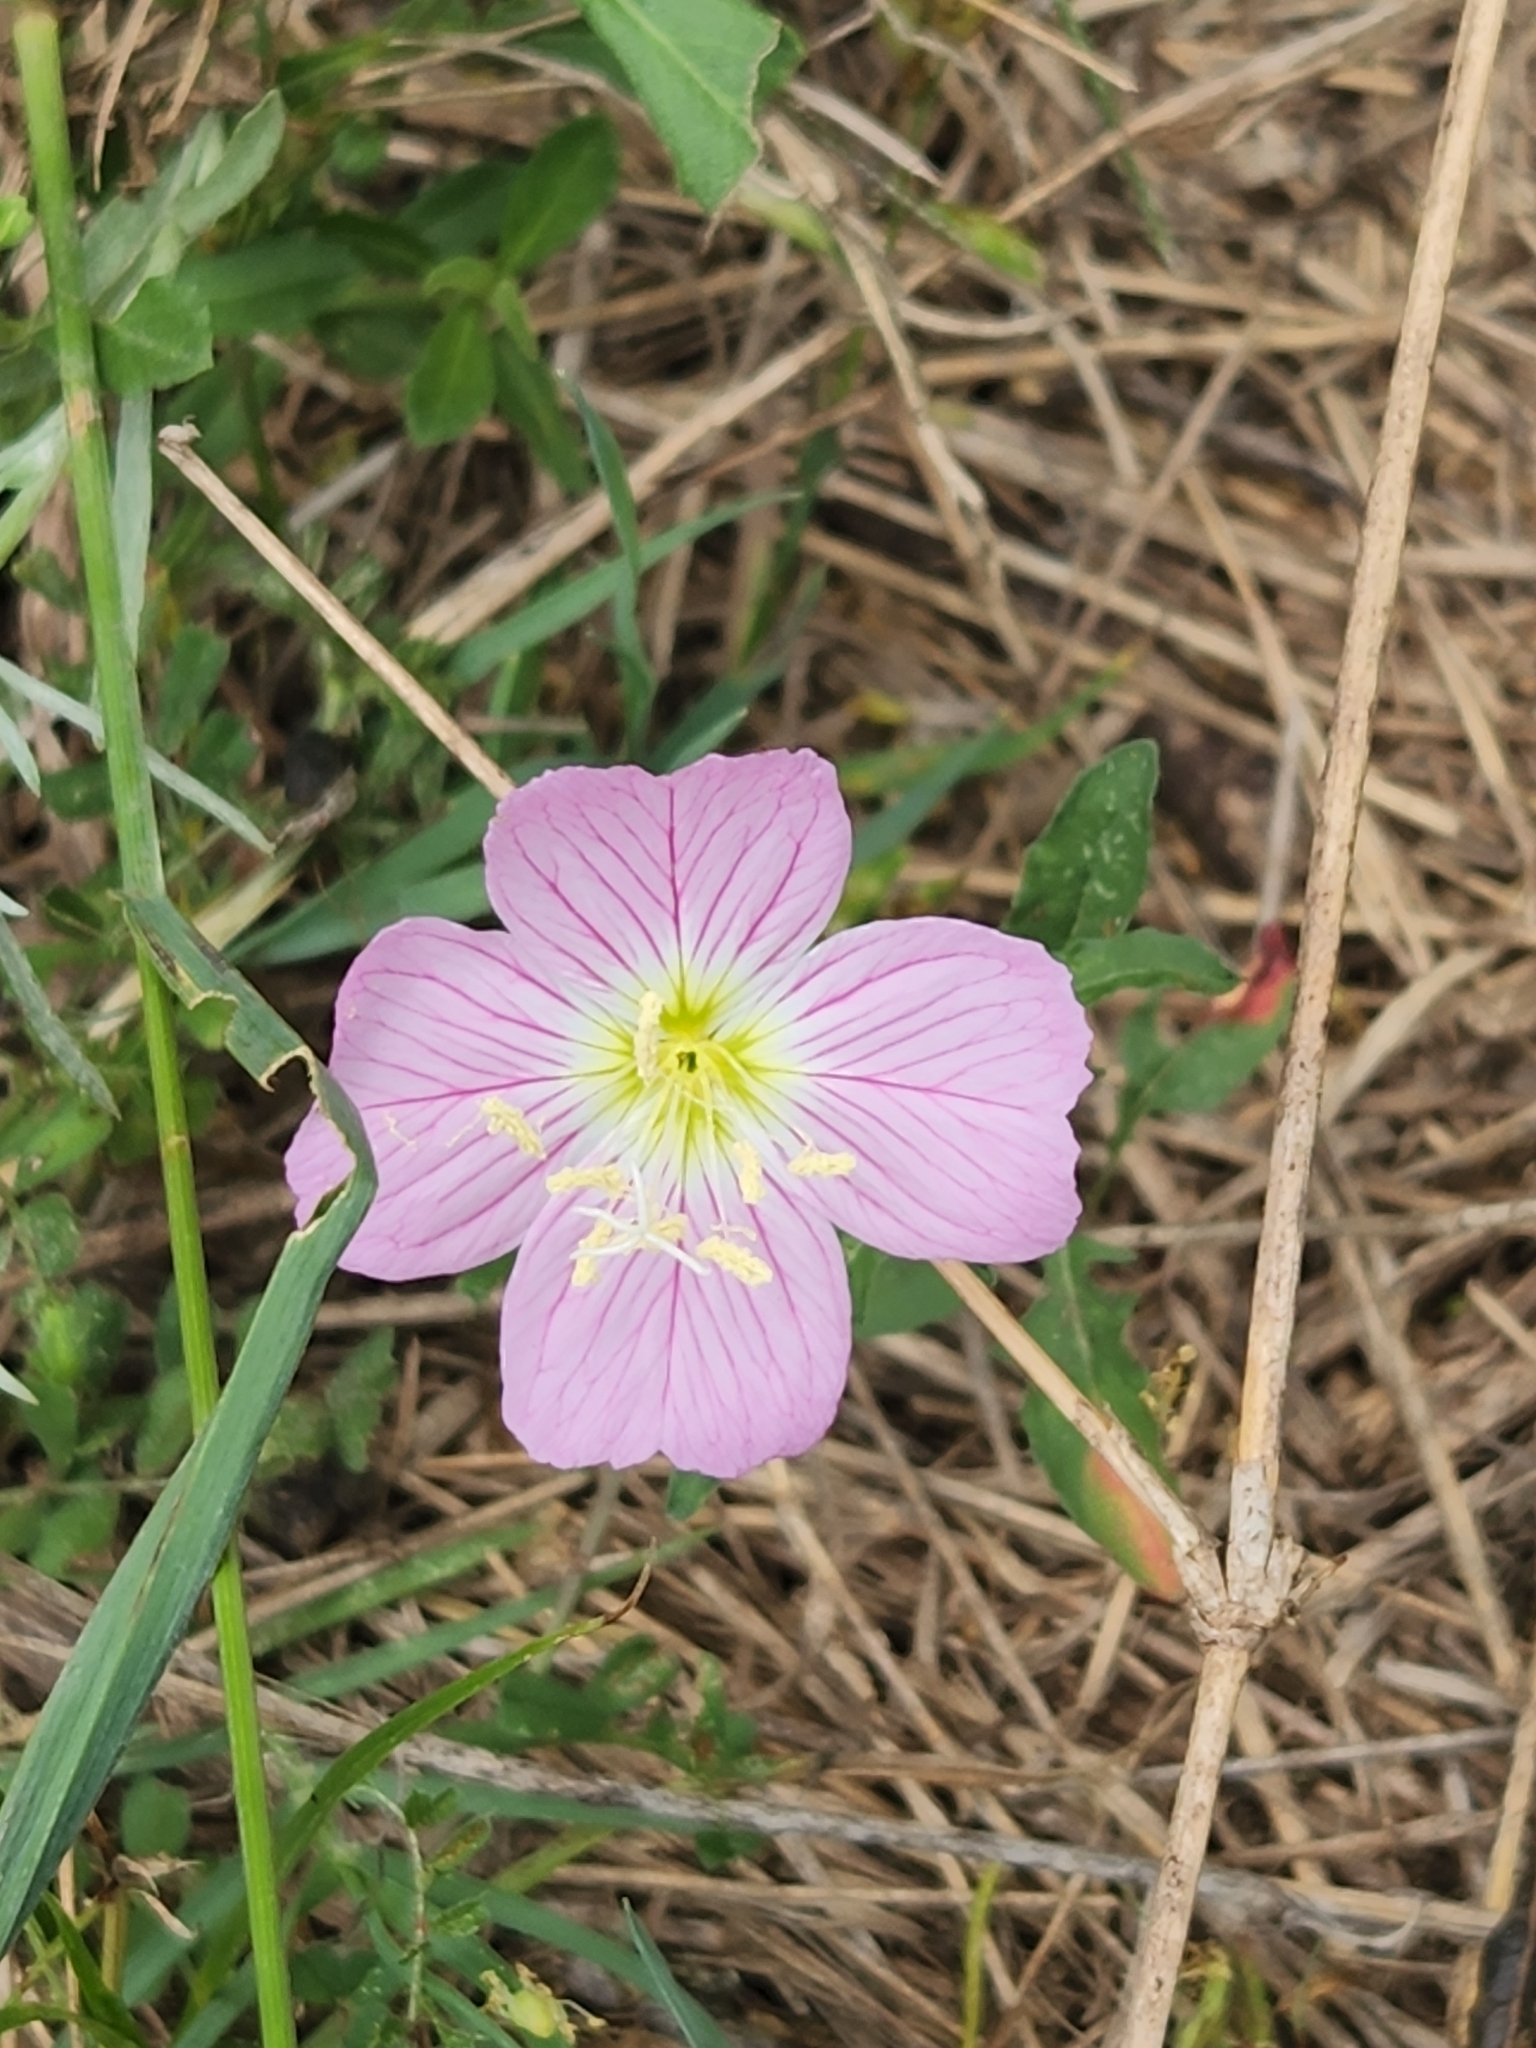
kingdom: Plantae
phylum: Tracheophyta
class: Magnoliopsida
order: Myrtales
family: Onagraceae
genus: Oenothera
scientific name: Oenothera speciosa
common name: White evening-primrose
